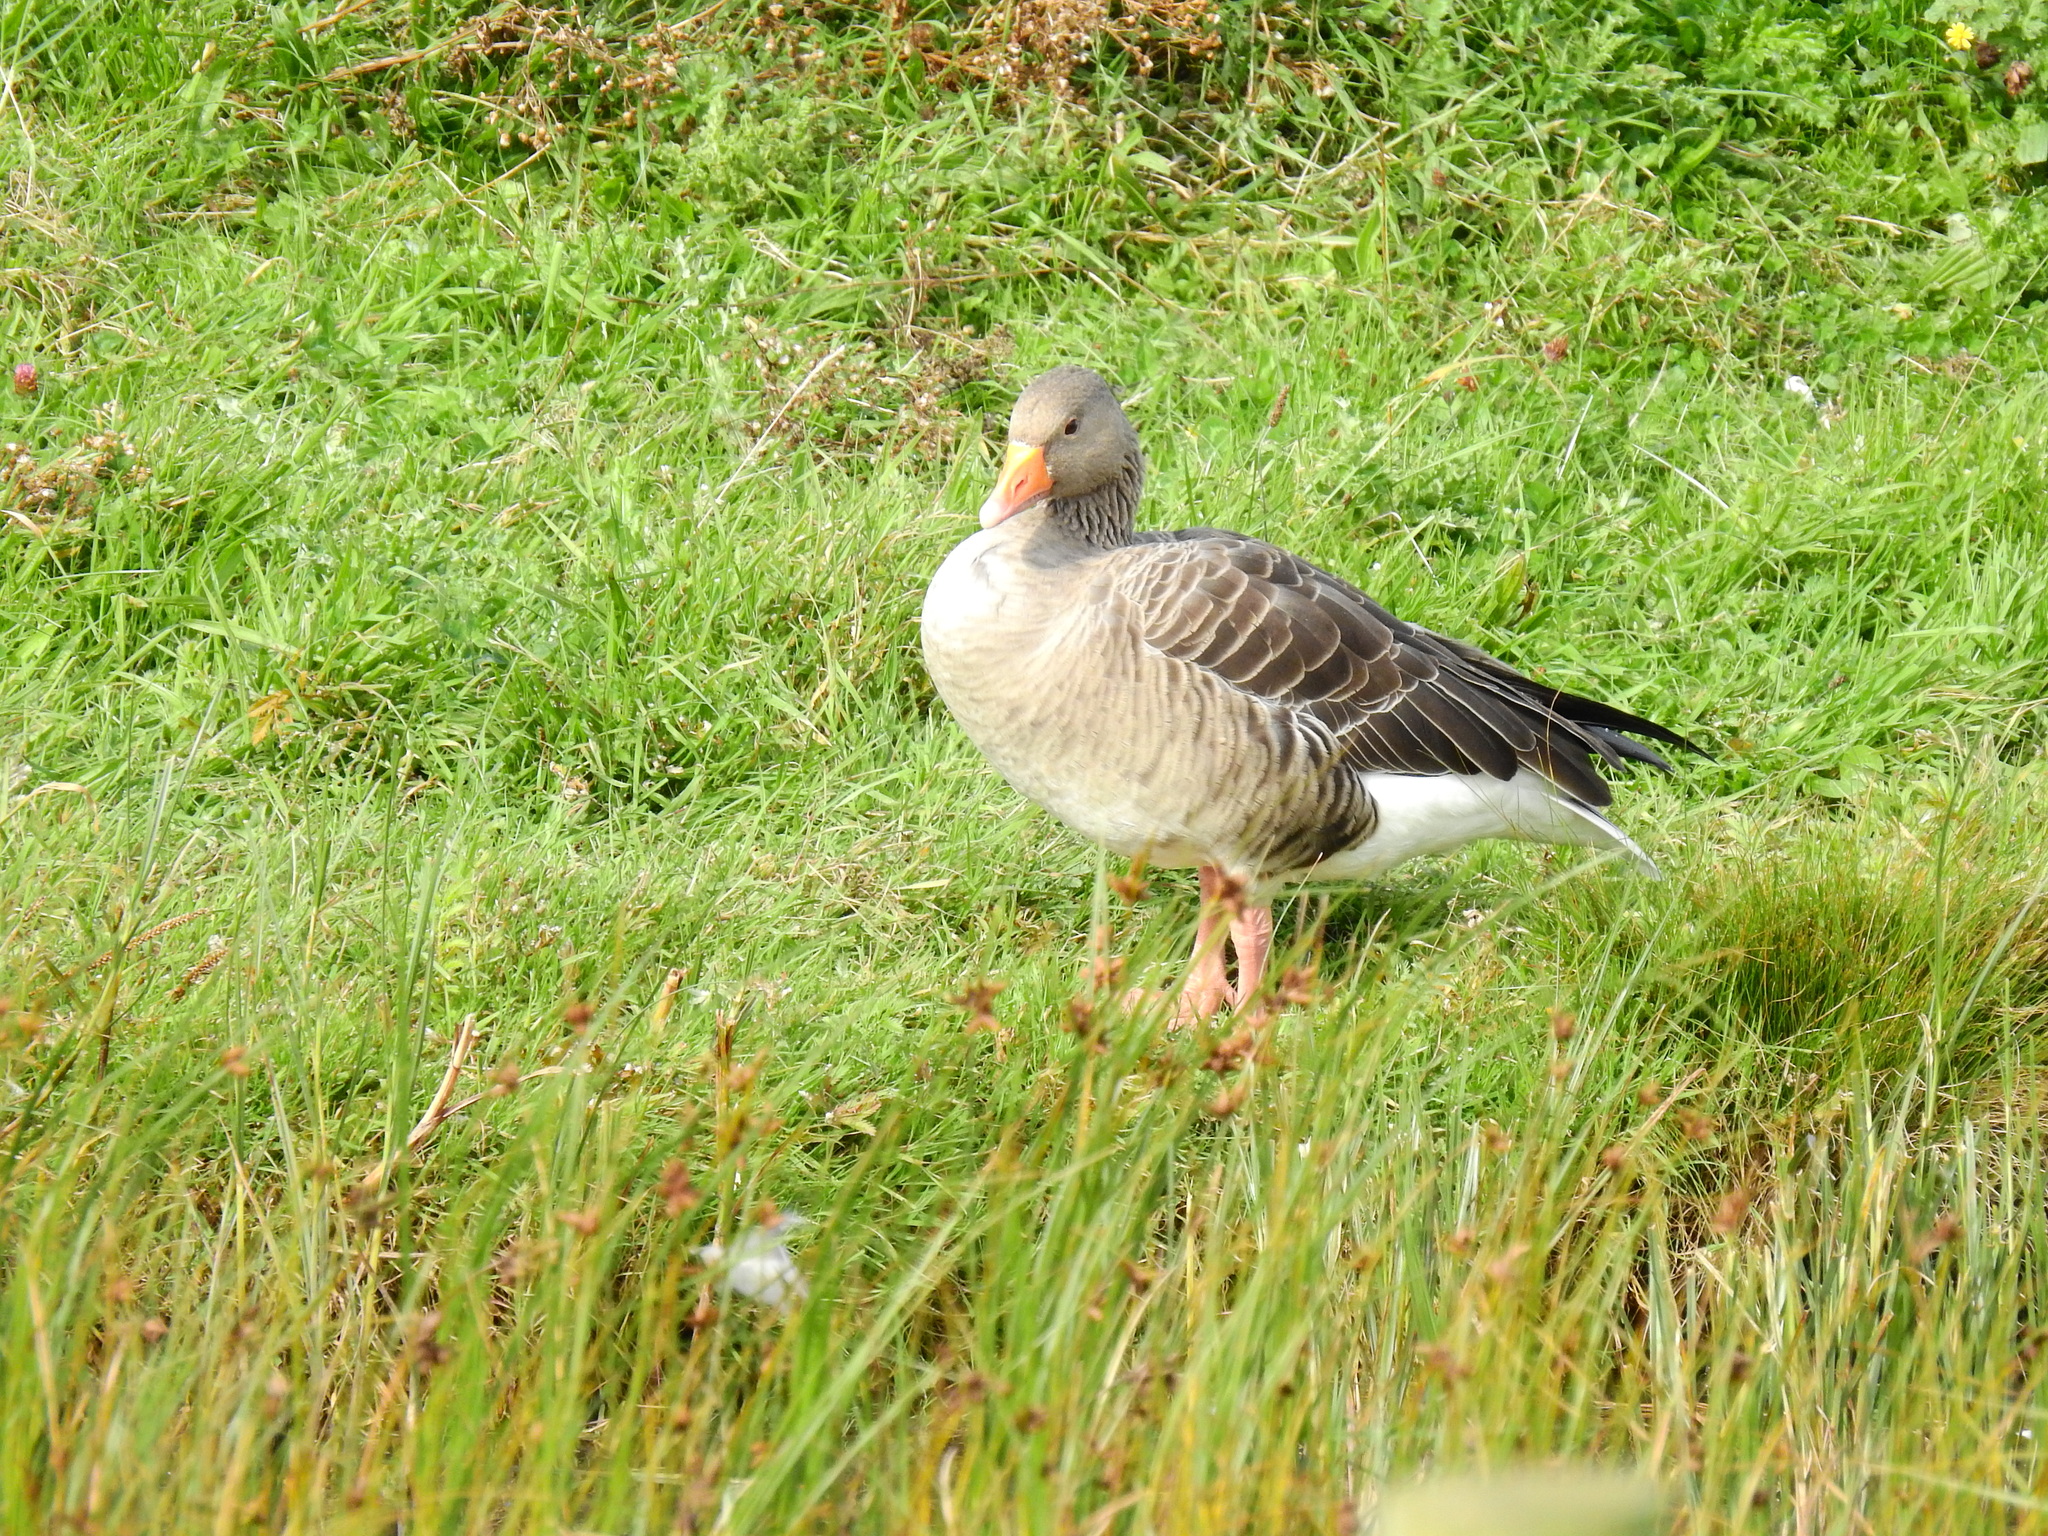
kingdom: Animalia
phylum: Chordata
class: Aves
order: Anseriformes
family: Anatidae
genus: Anser
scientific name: Anser anser
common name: Greylag goose
